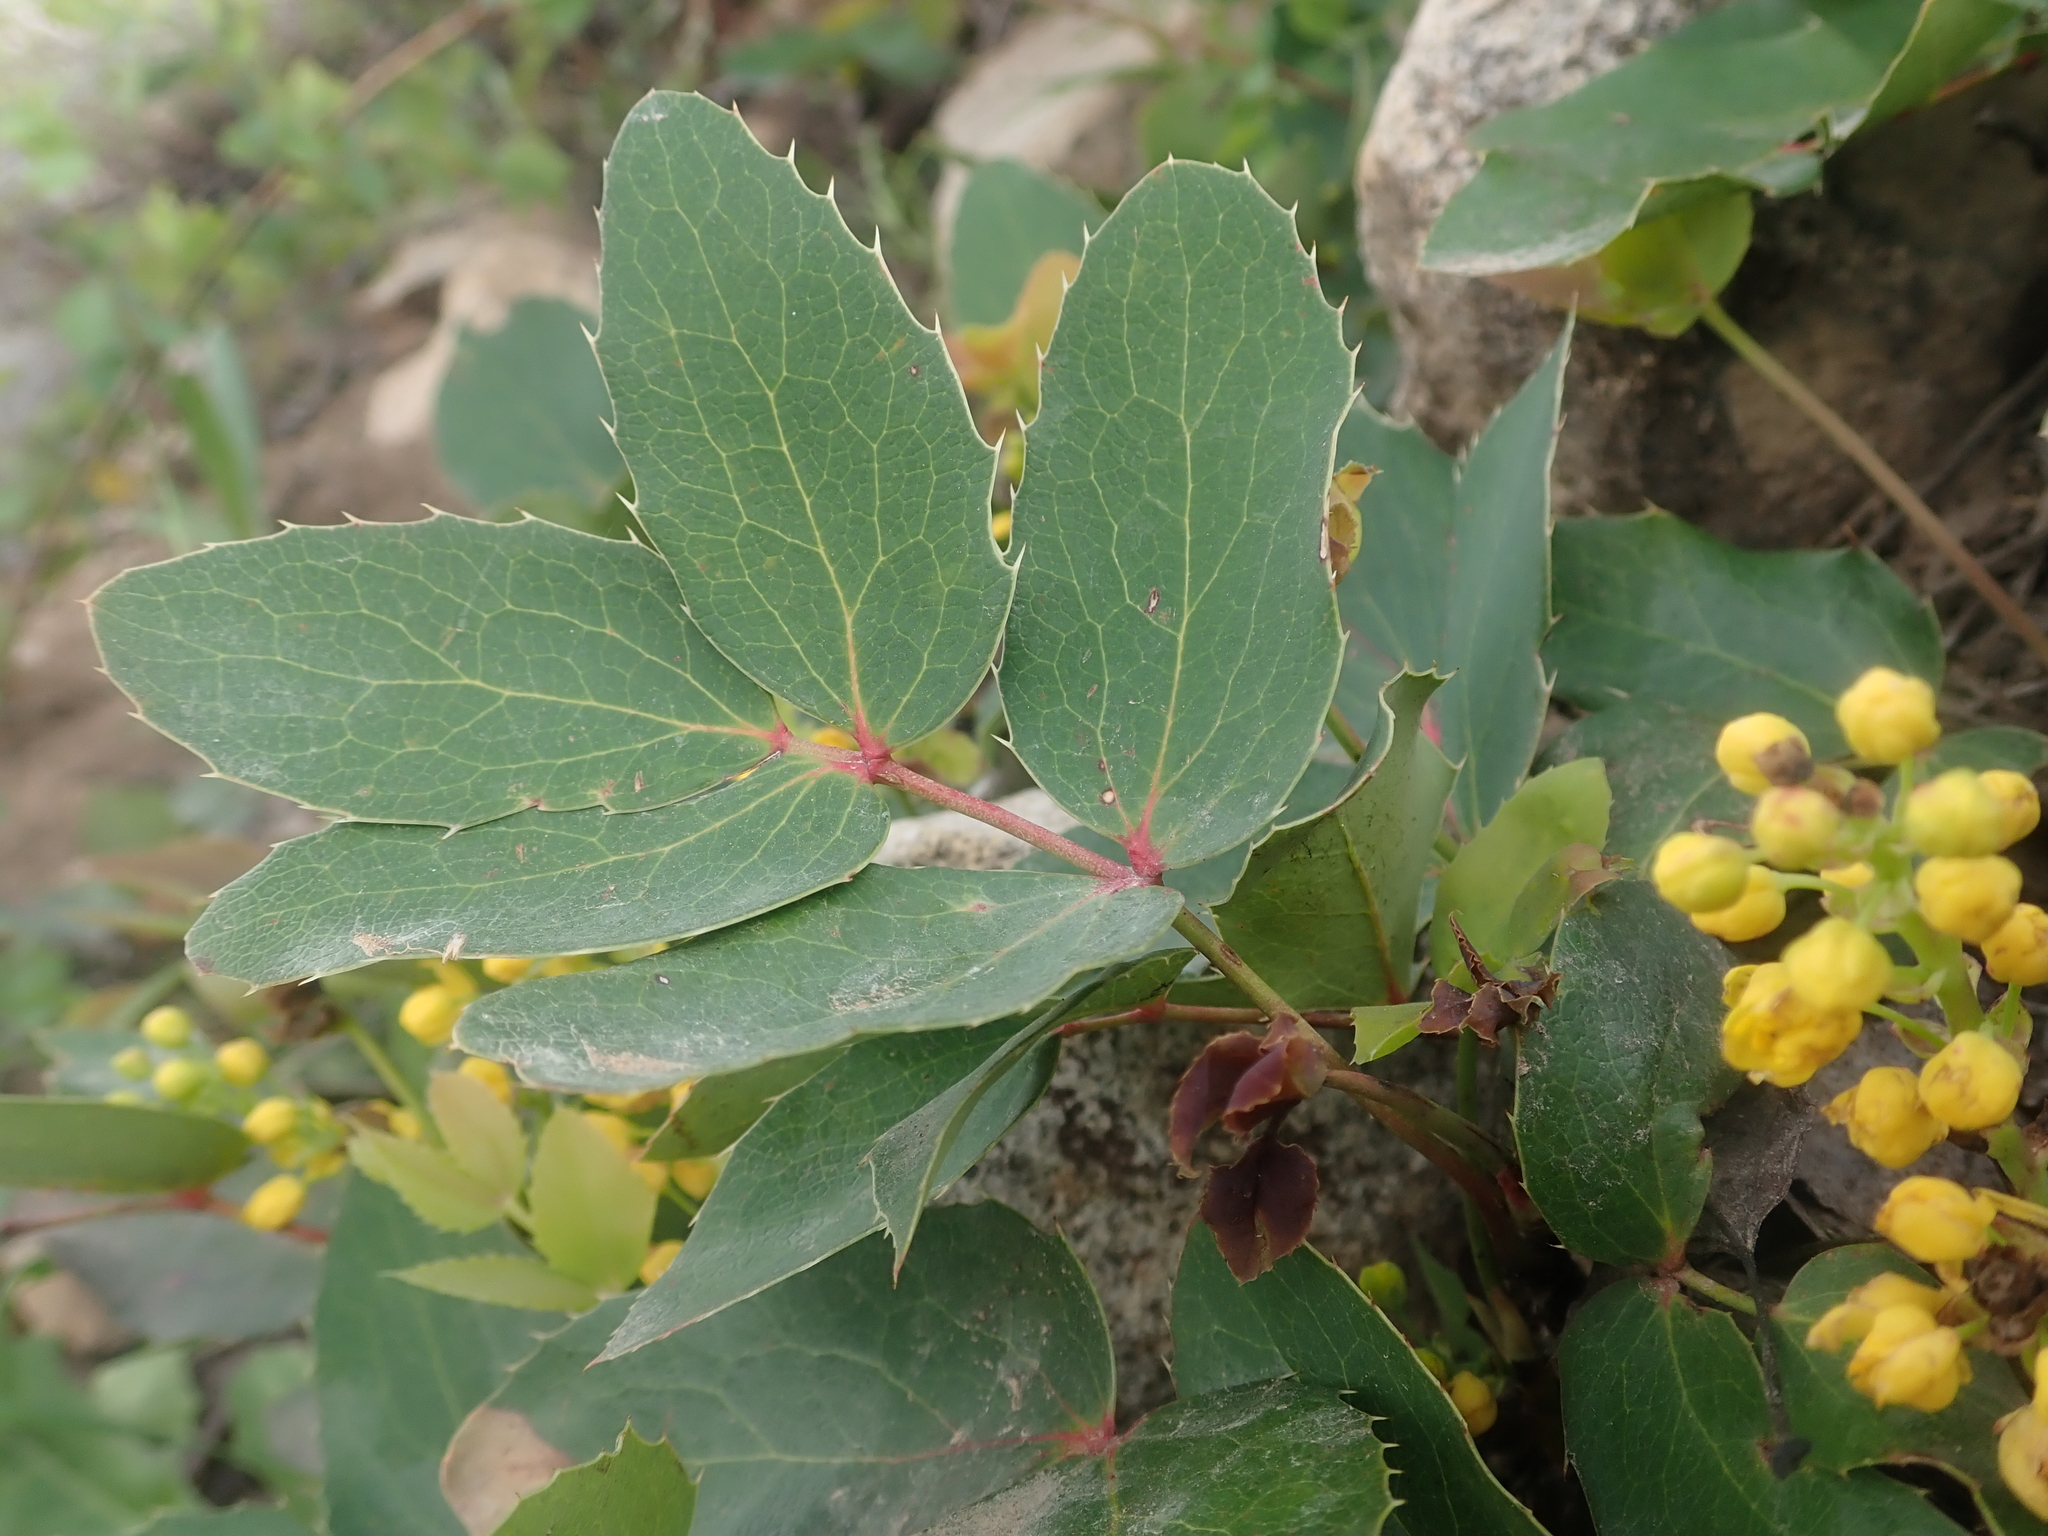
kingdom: Plantae
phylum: Tracheophyta
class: Magnoliopsida
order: Ranunculales
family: Berberidaceae
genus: Mahonia
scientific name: Mahonia repens
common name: Creeping oregon-grape
